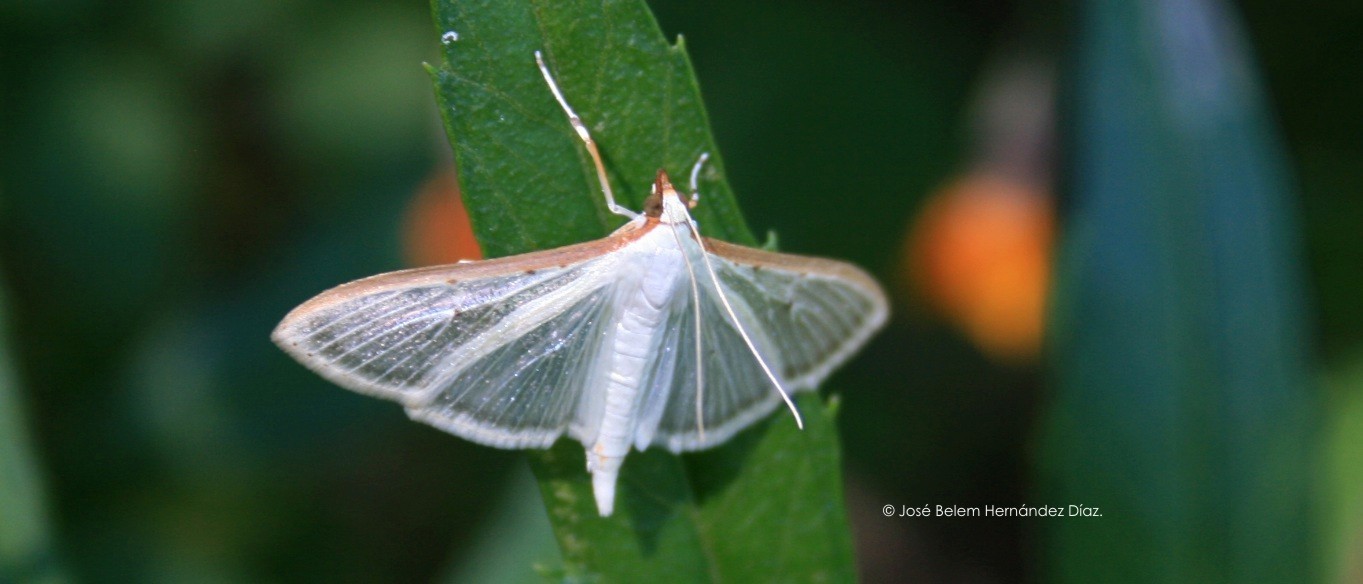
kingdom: Animalia
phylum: Arthropoda
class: Insecta
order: Lepidoptera
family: Crambidae
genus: Palpita
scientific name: Palpita quadristigmalis
